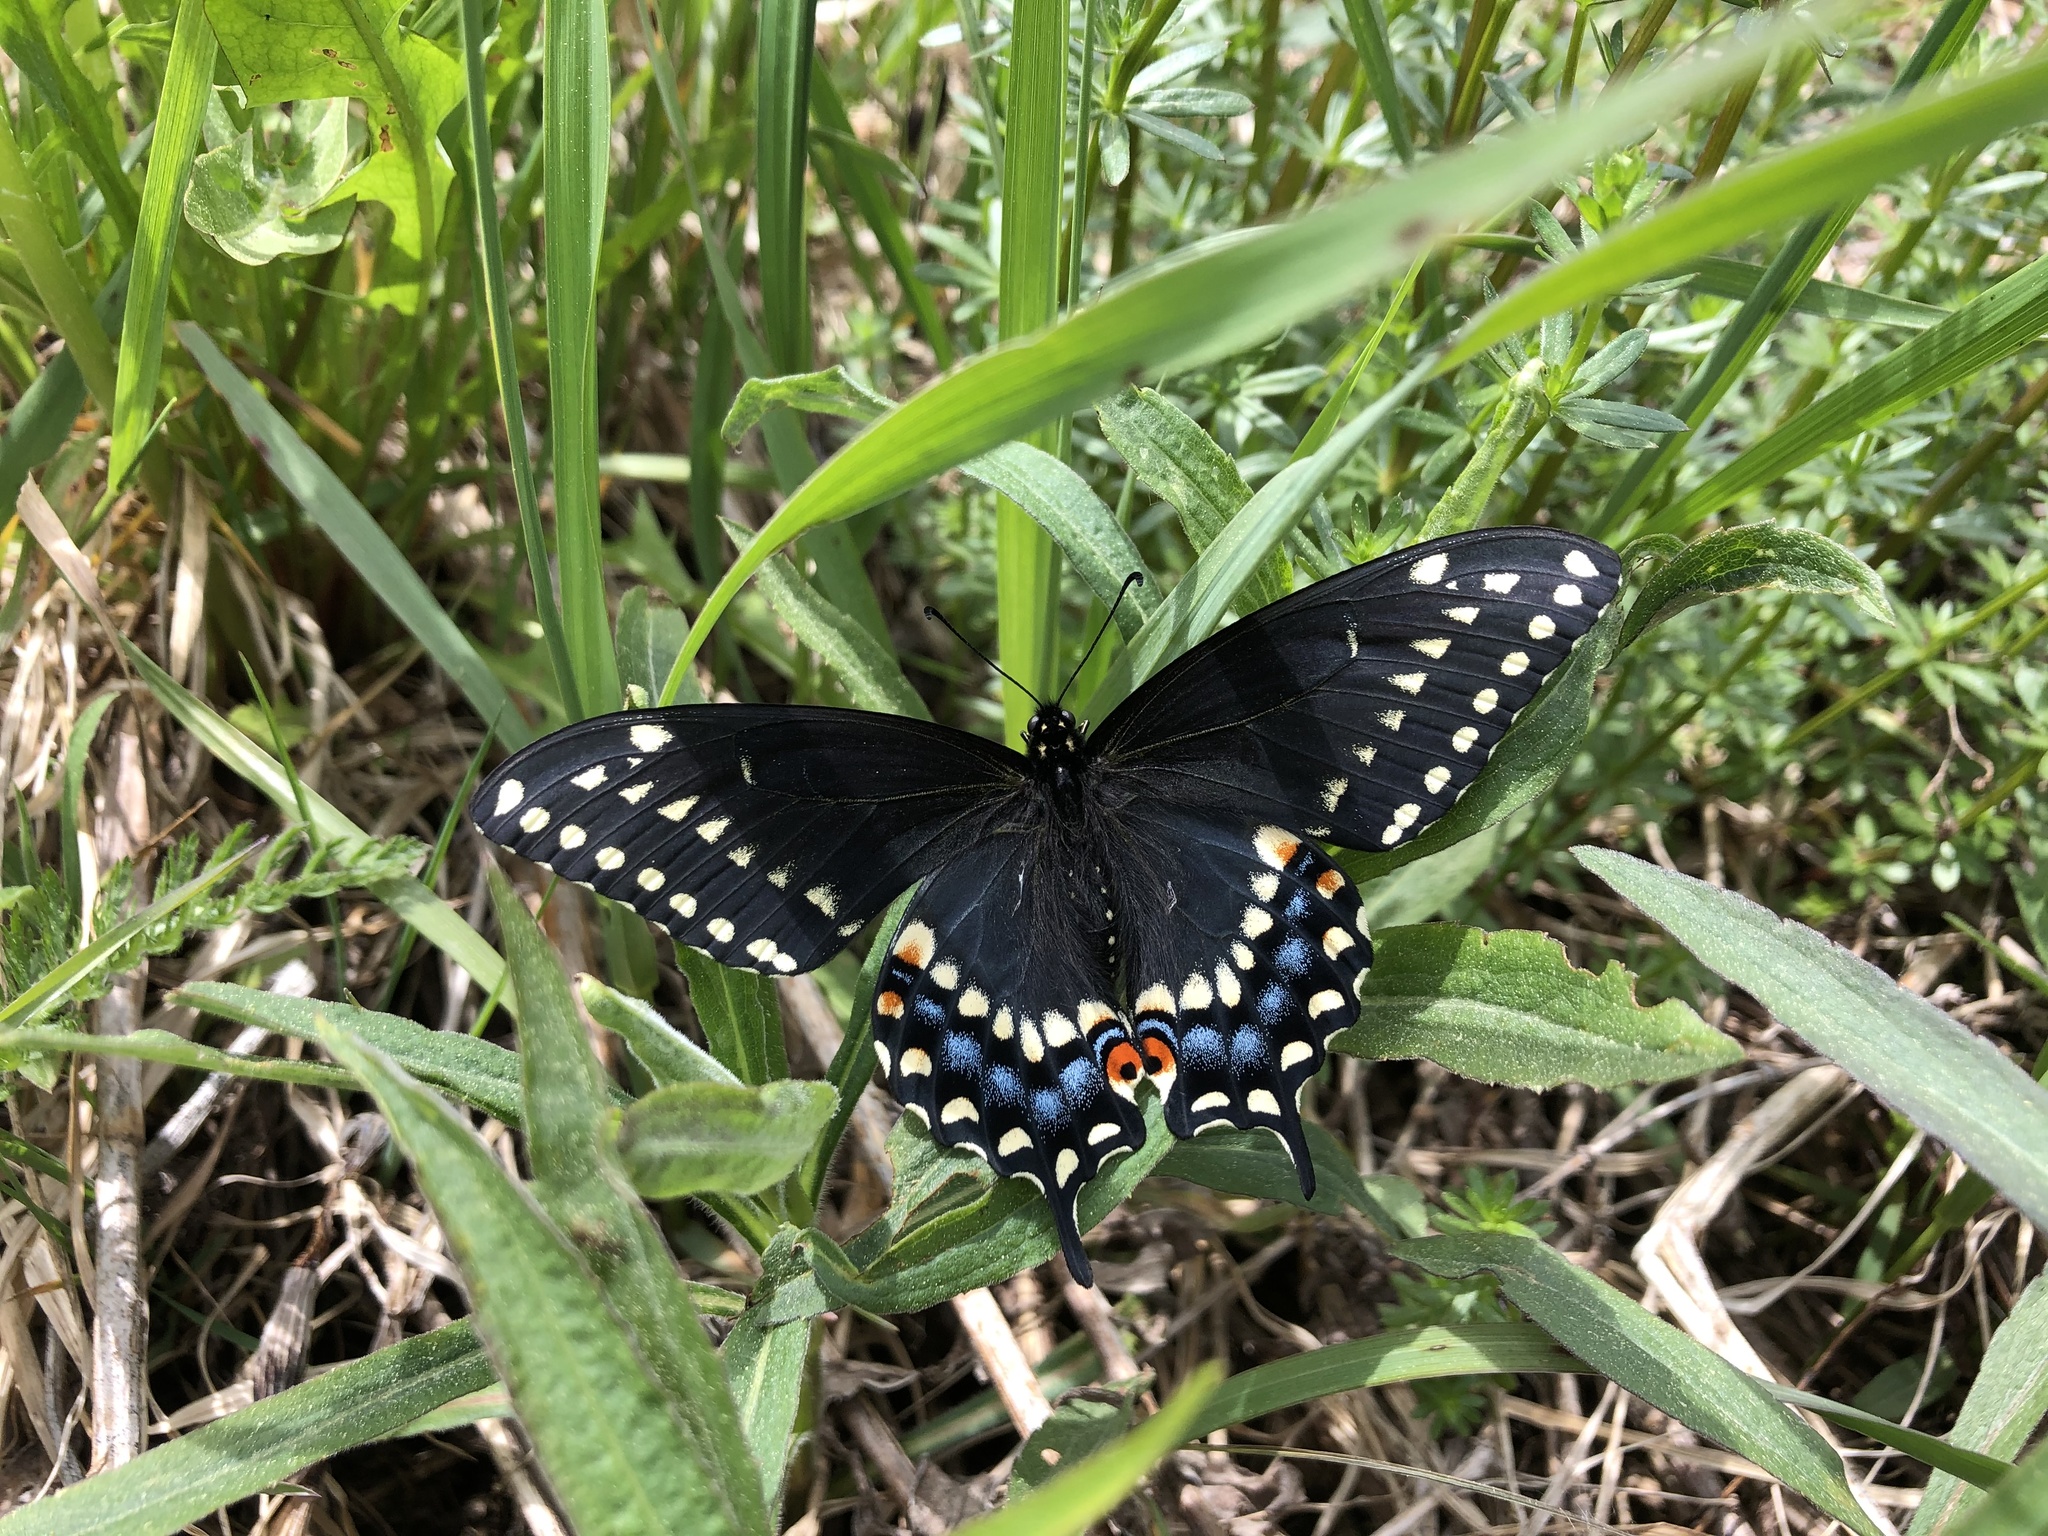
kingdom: Animalia
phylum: Arthropoda
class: Insecta
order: Lepidoptera
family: Papilionidae
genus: Papilio
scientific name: Papilio polyxenes
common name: Black swallowtail
